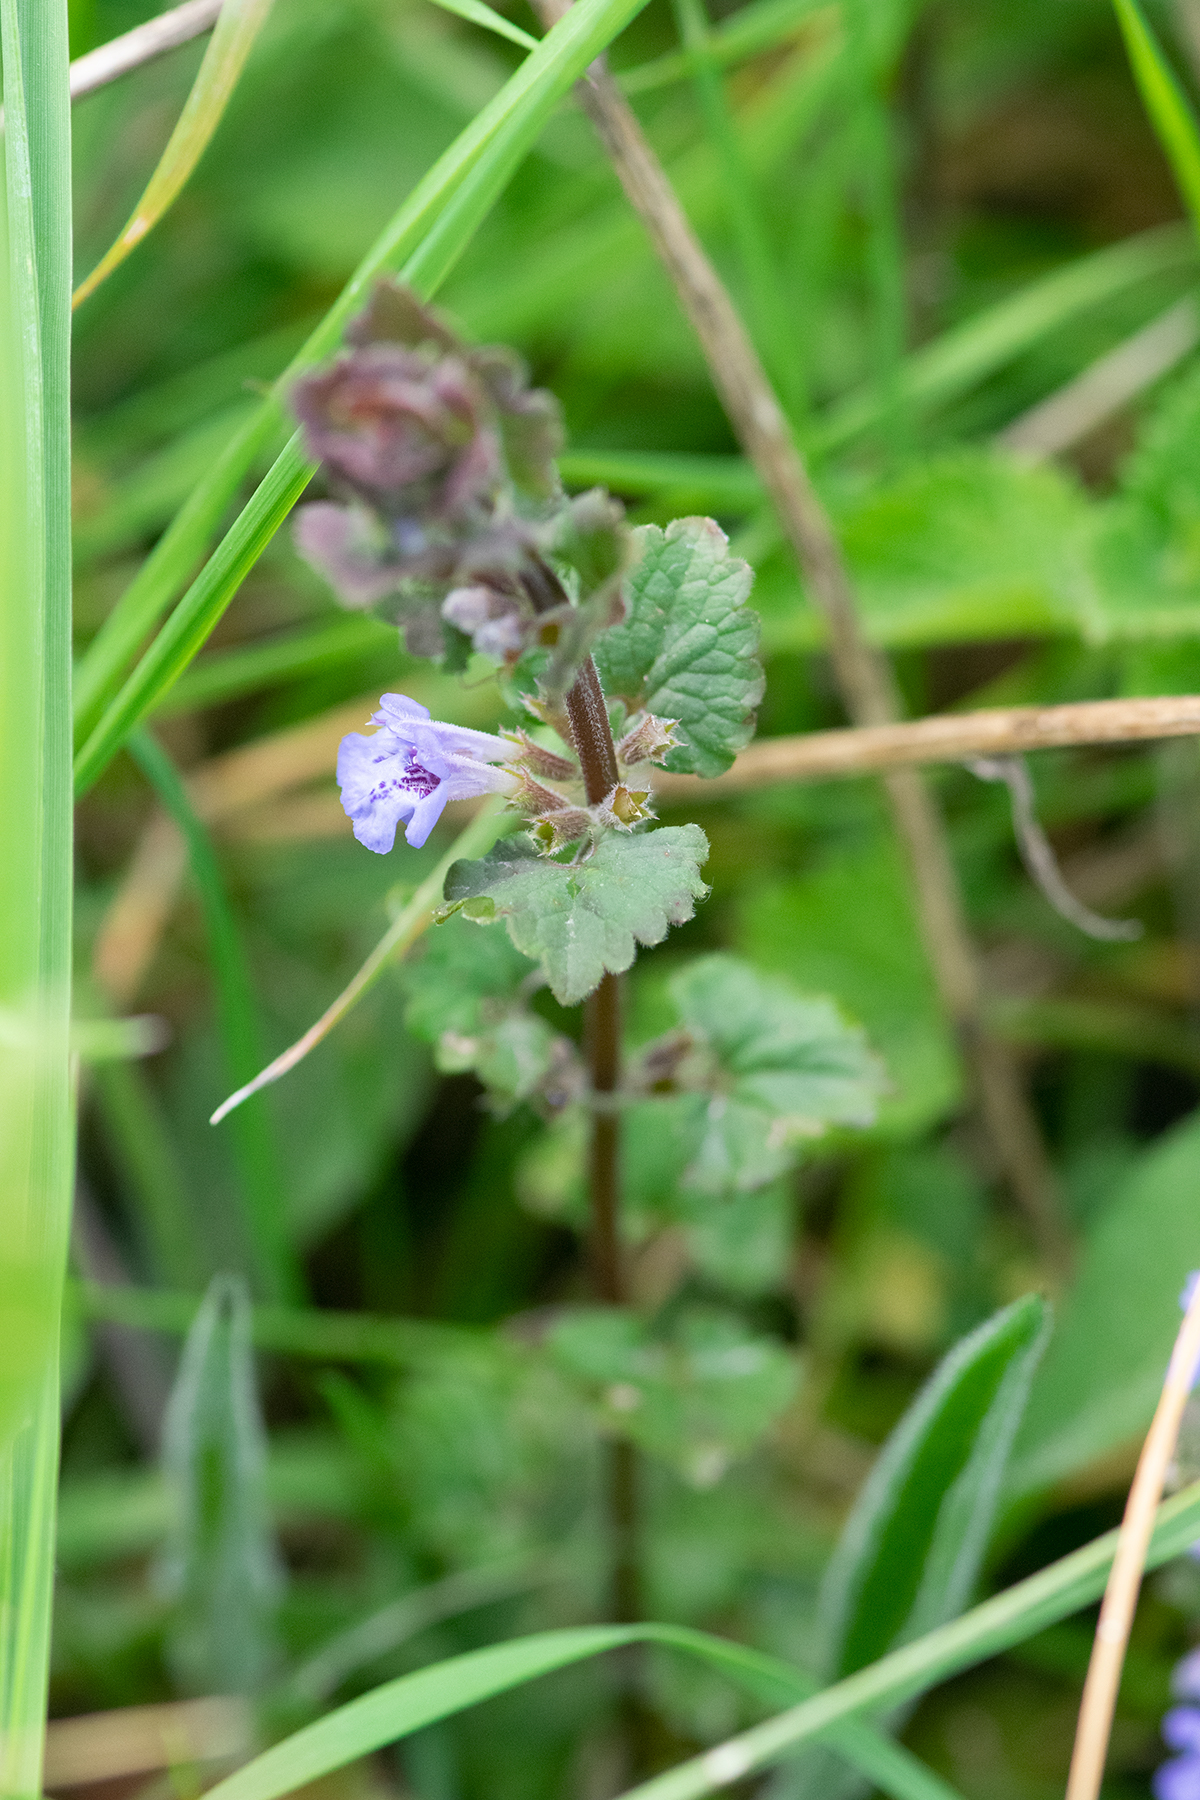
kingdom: Plantae
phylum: Tracheophyta
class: Magnoliopsida
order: Lamiales
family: Lamiaceae
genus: Glechoma
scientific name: Glechoma hederacea
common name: Ground ivy
